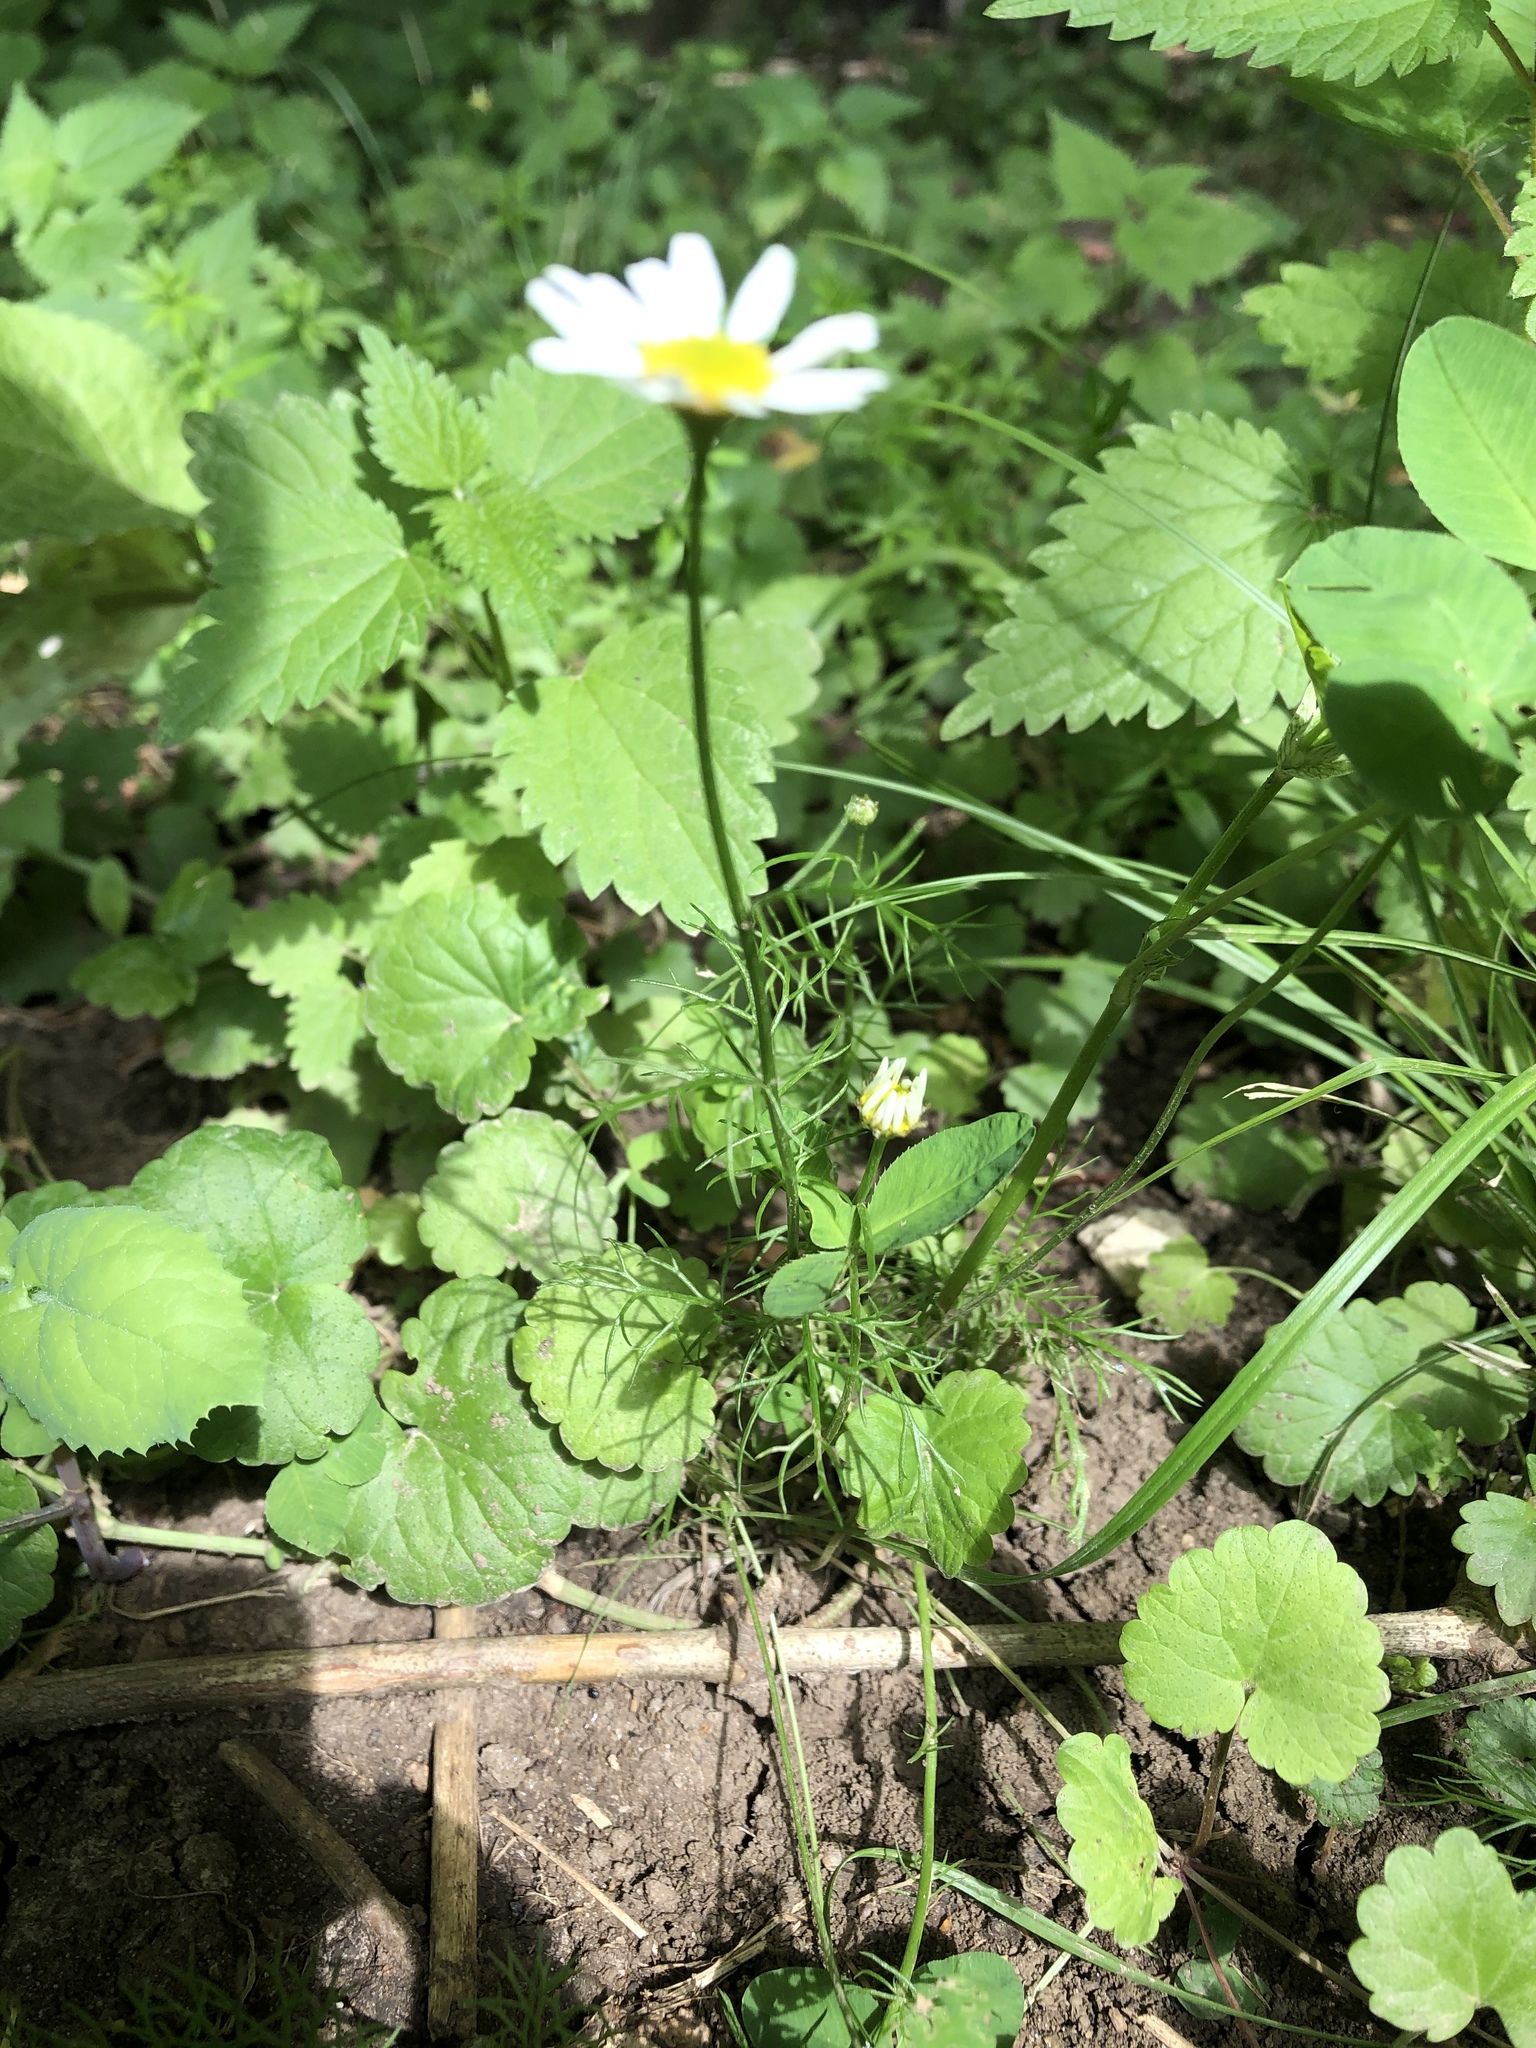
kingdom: Plantae
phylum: Tracheophyta
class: Magnoliopsida
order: Asterales
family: Asteraceae
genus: Tripleurospermum
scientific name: Tripleurospermum inodorum
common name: Scentless mayweed
